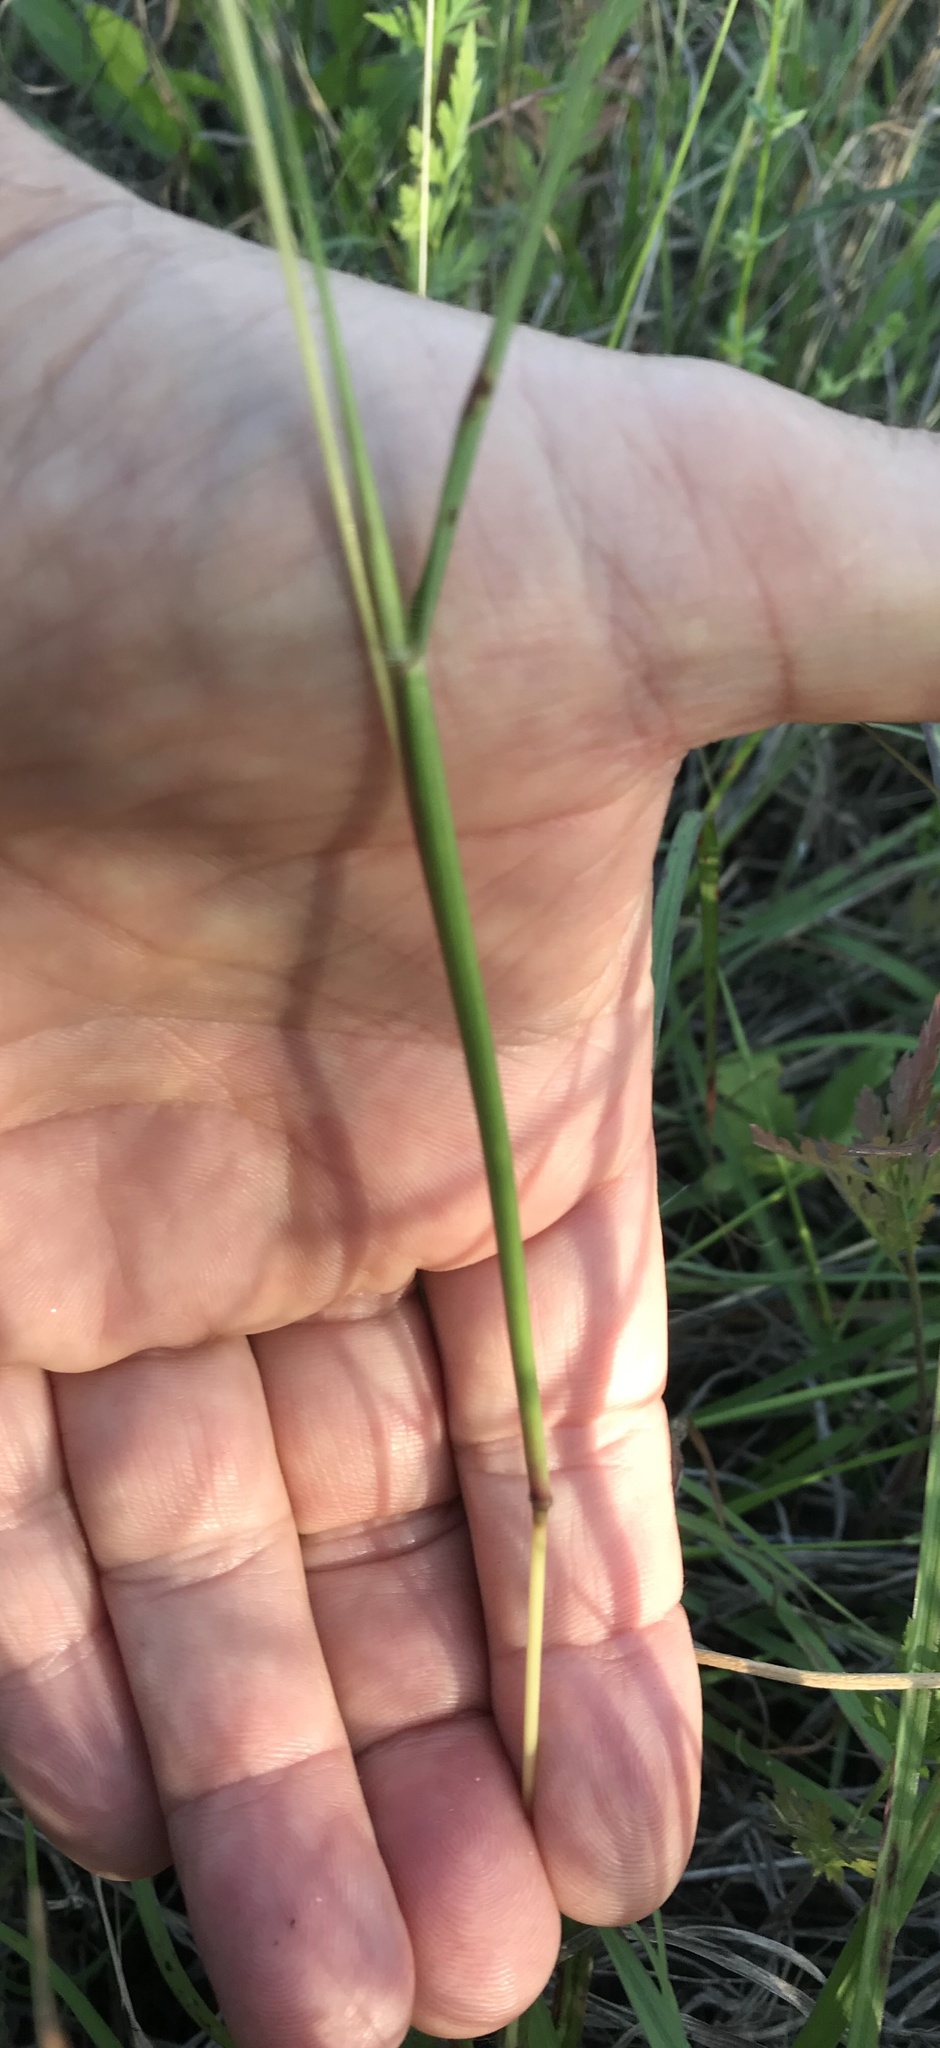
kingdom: Plantae
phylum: Tracheophyta
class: Liliopsida
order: Poales
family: Poaceae
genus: Bothriochloa
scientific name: Bothriochloa ischaemum
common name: Yellow bluestem
